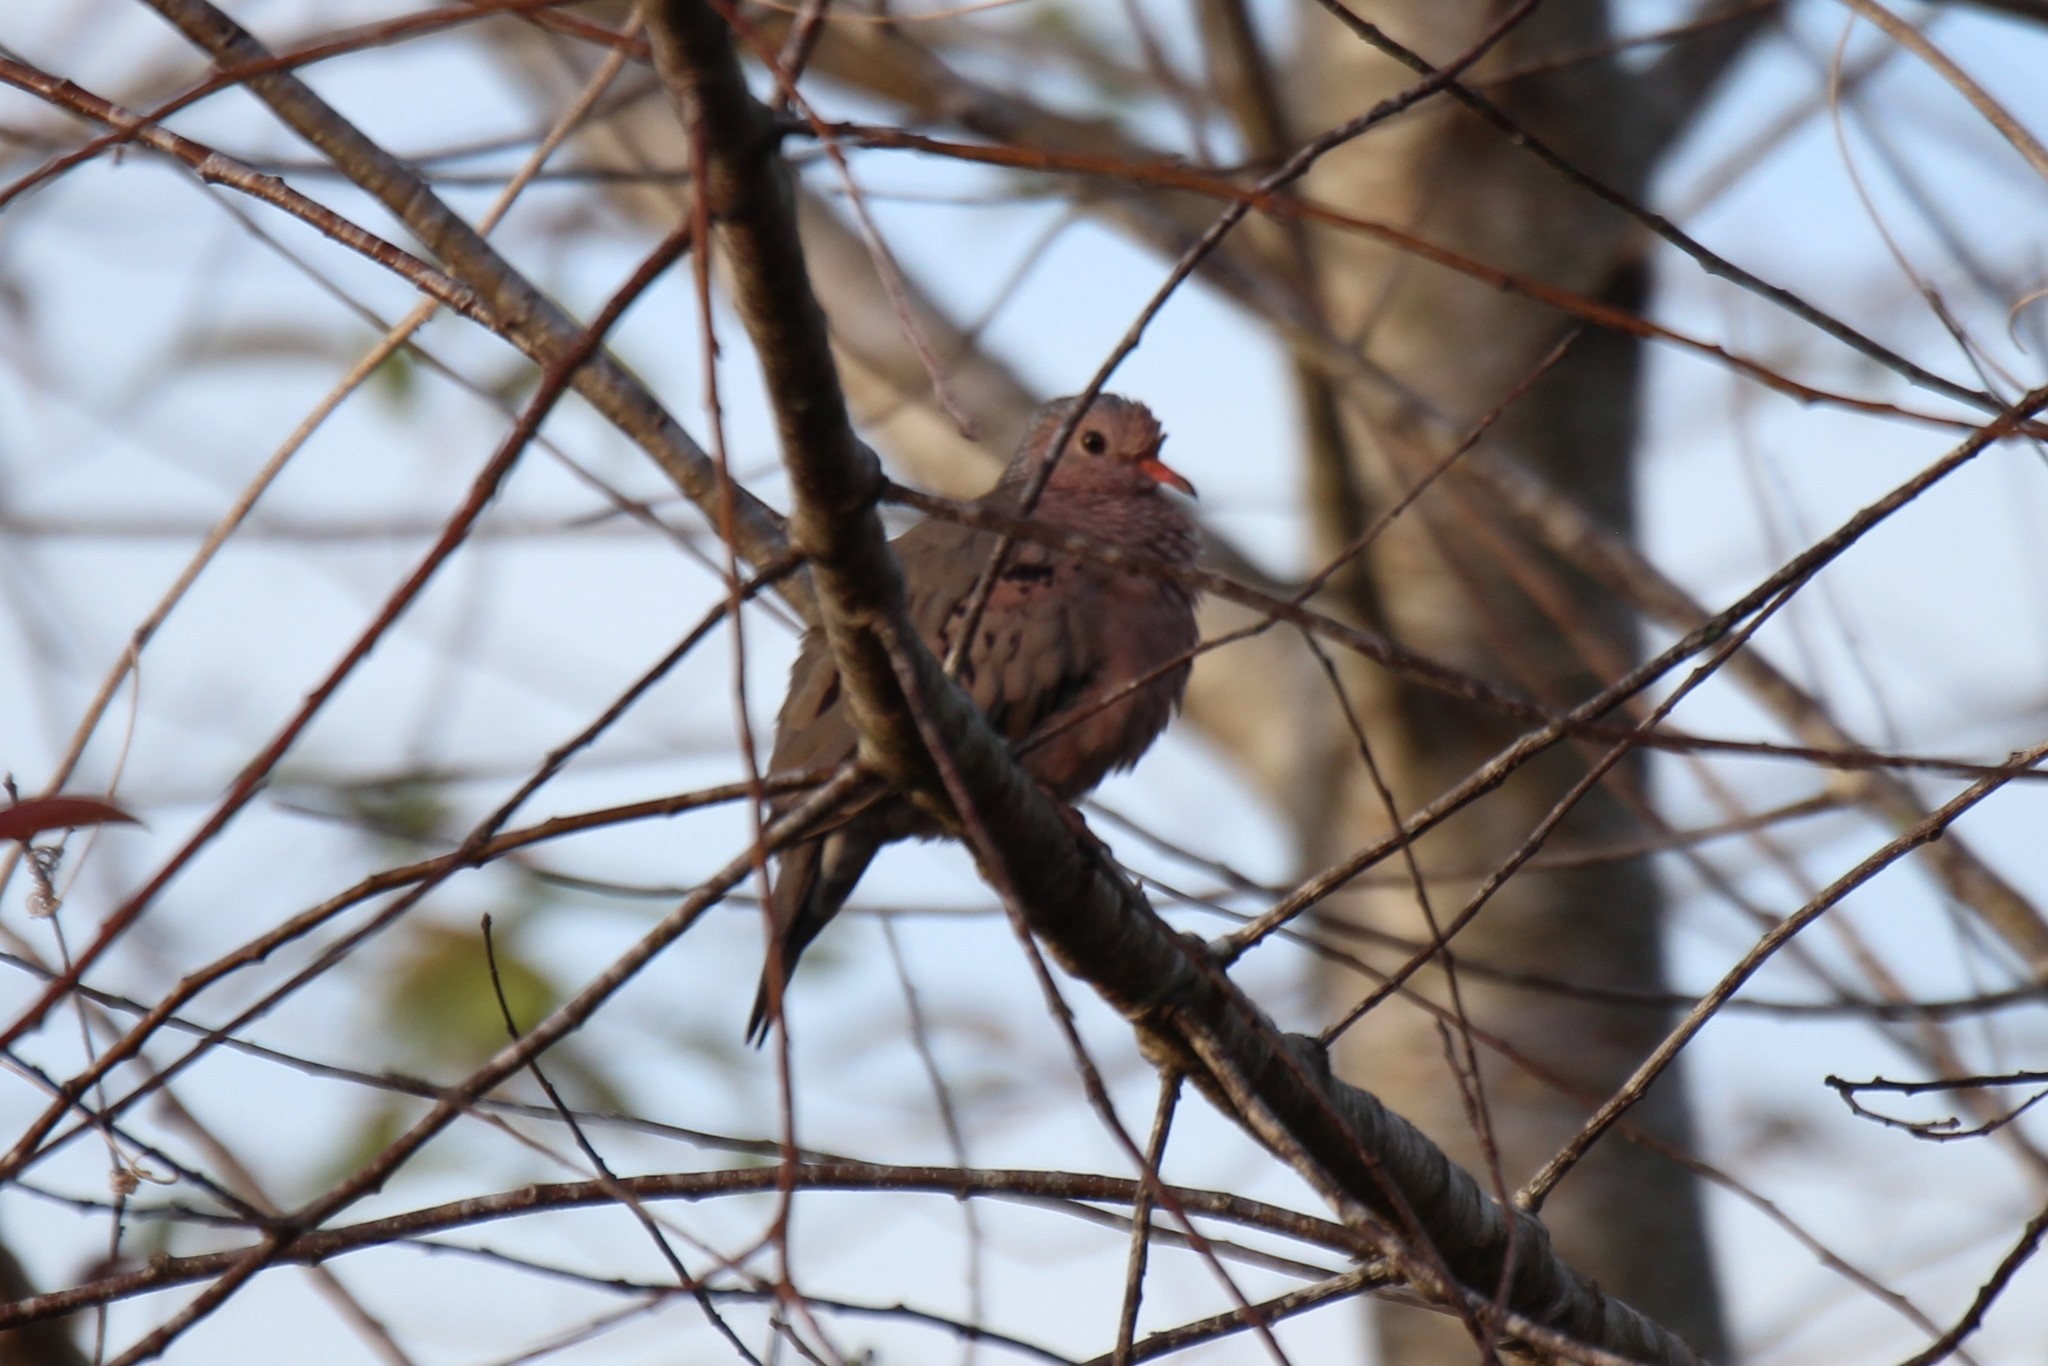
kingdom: Animalia
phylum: Chordata
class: Aves
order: Columbiformes
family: Columbidae
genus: Columbina
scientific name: Columbina passerina
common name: Common ground-dove
